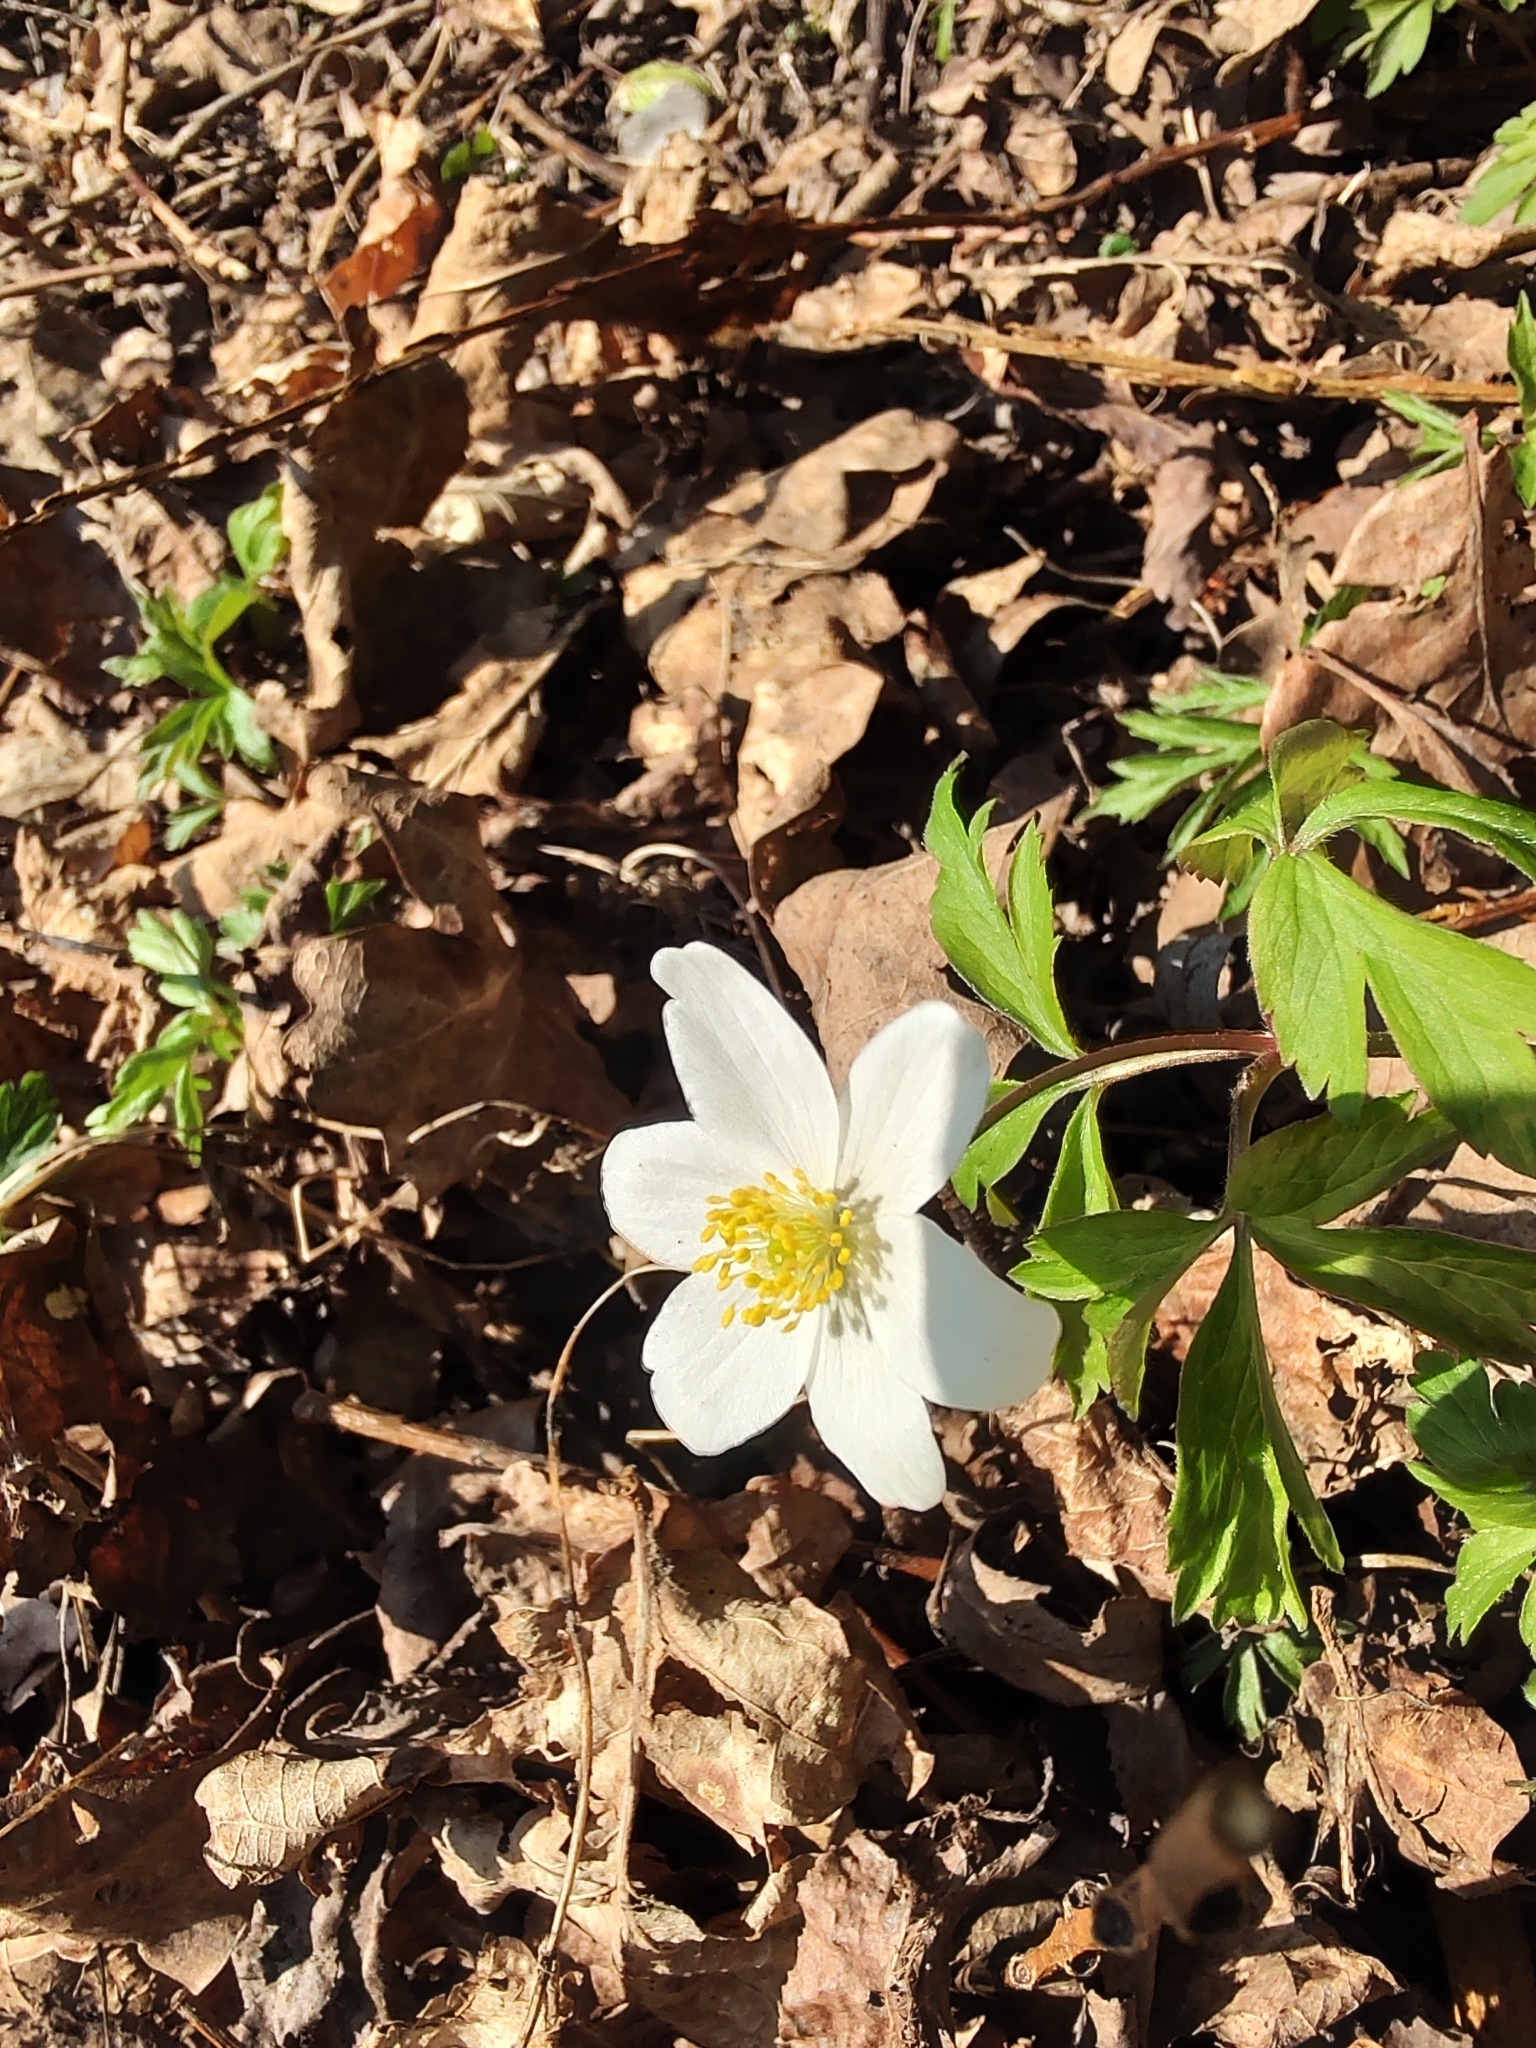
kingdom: Plantae
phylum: Tracheophyta
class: Magnoliopsida
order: Ranunculales
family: Ranunculaceae
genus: Anemone
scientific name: Anemone nemorosa
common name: Wood anemone
